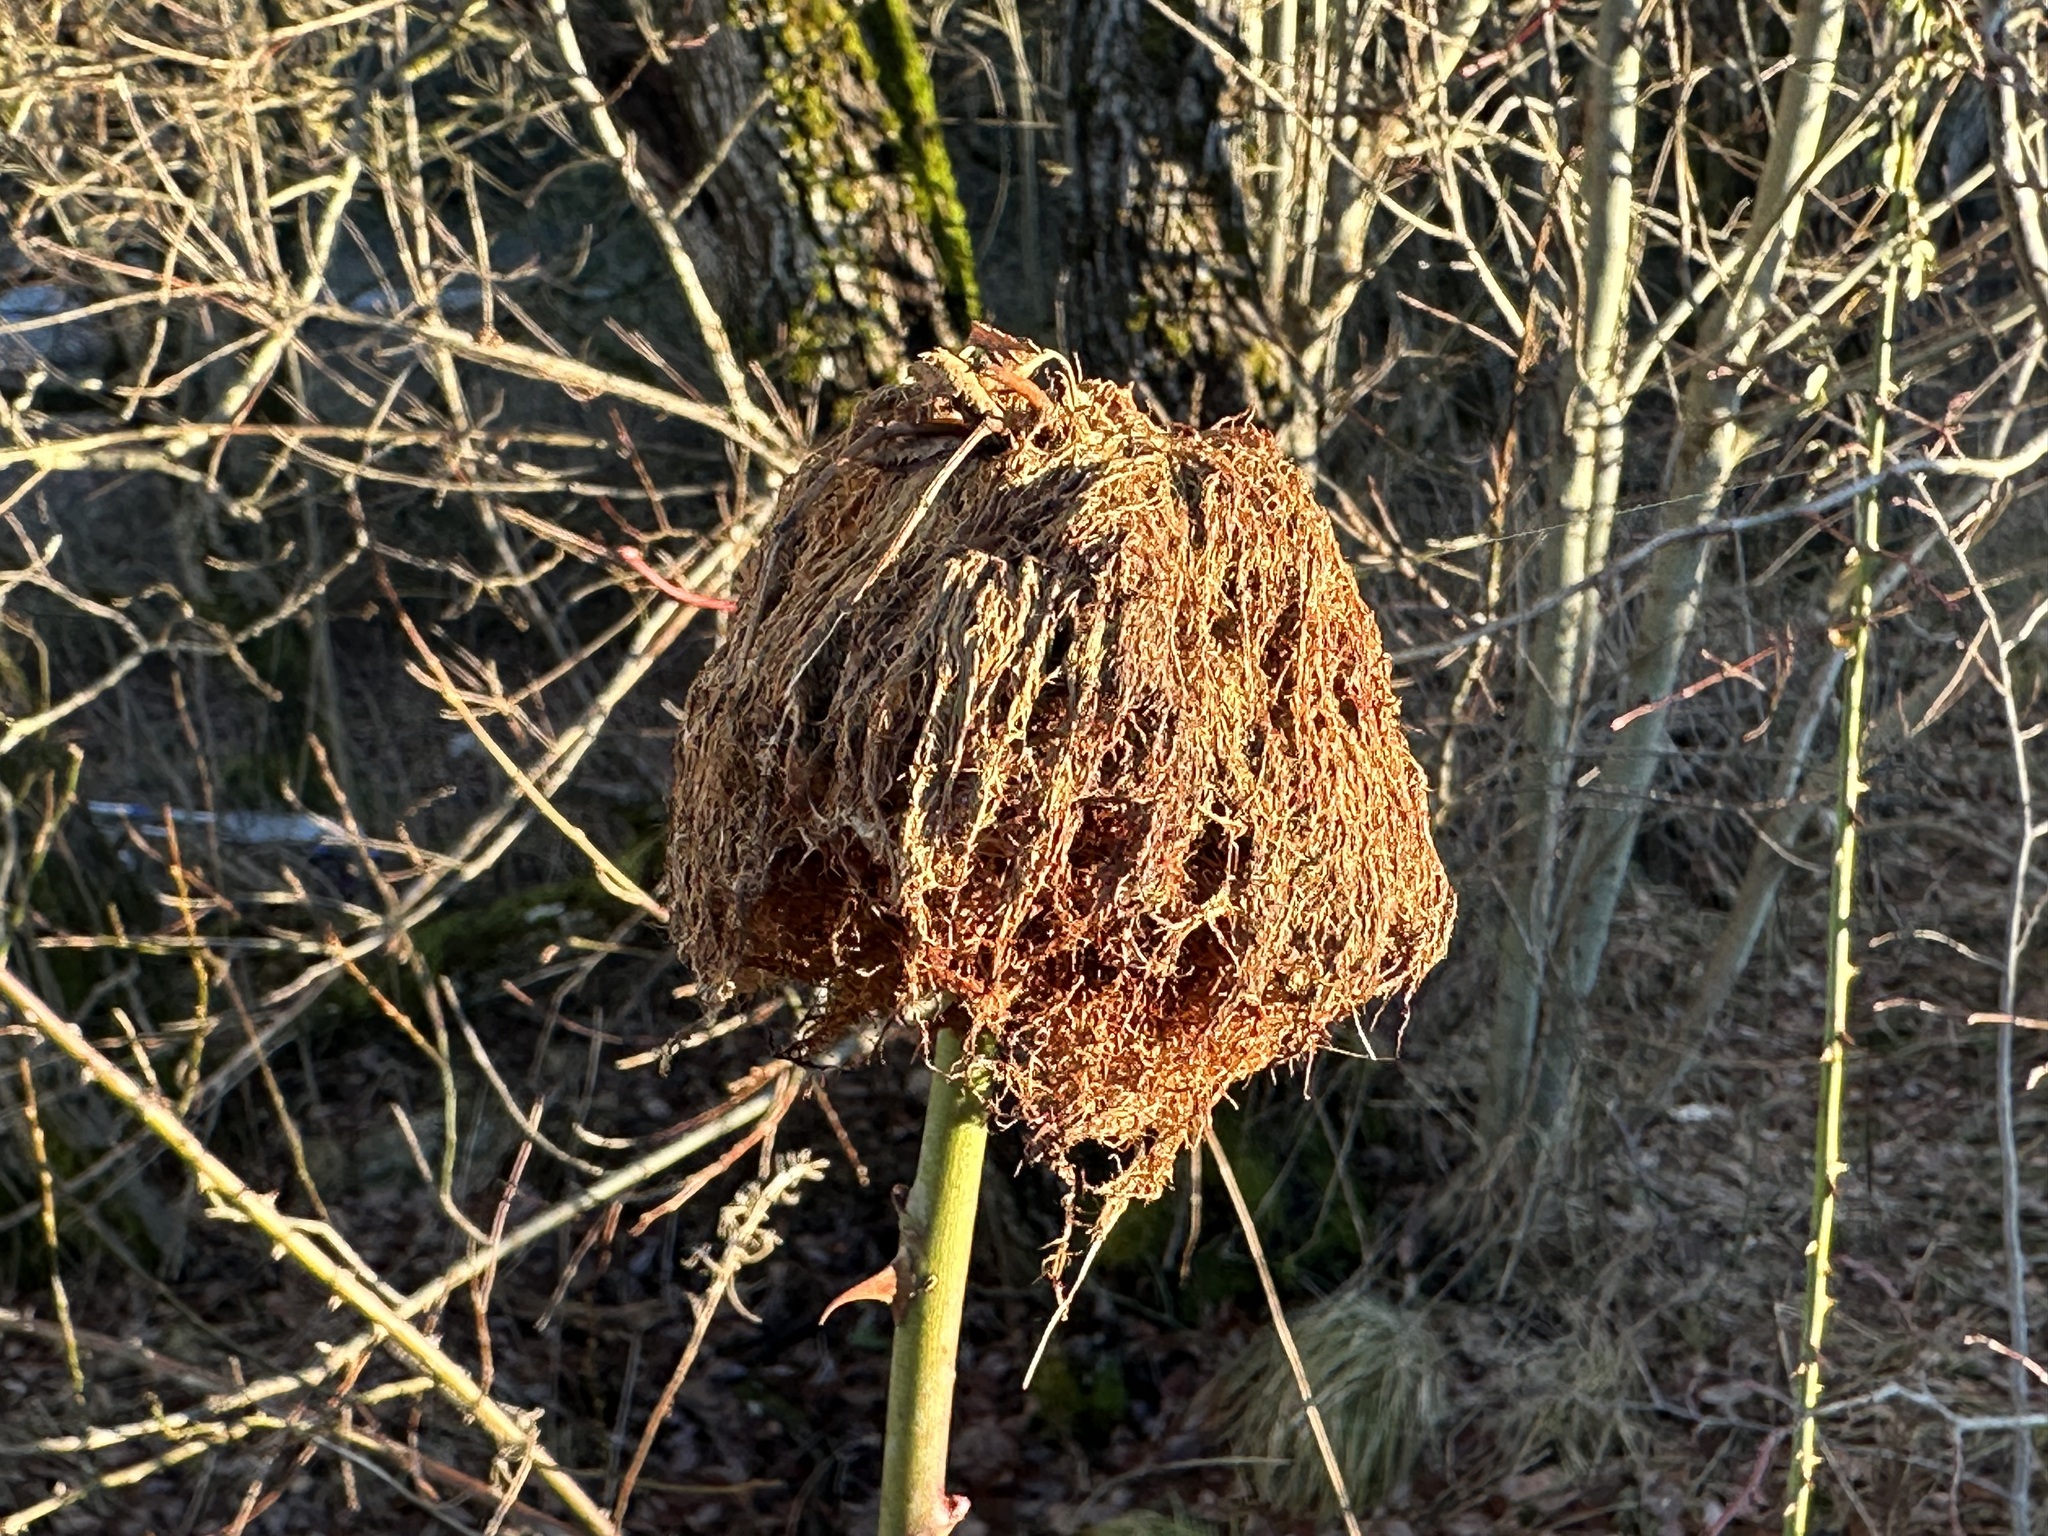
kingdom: Animalia
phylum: Arthropoda
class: Insecta
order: Hymenoptera
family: Cynipidae
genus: Diplolepis
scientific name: Diplolepis rosae
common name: Bedeguar gall
